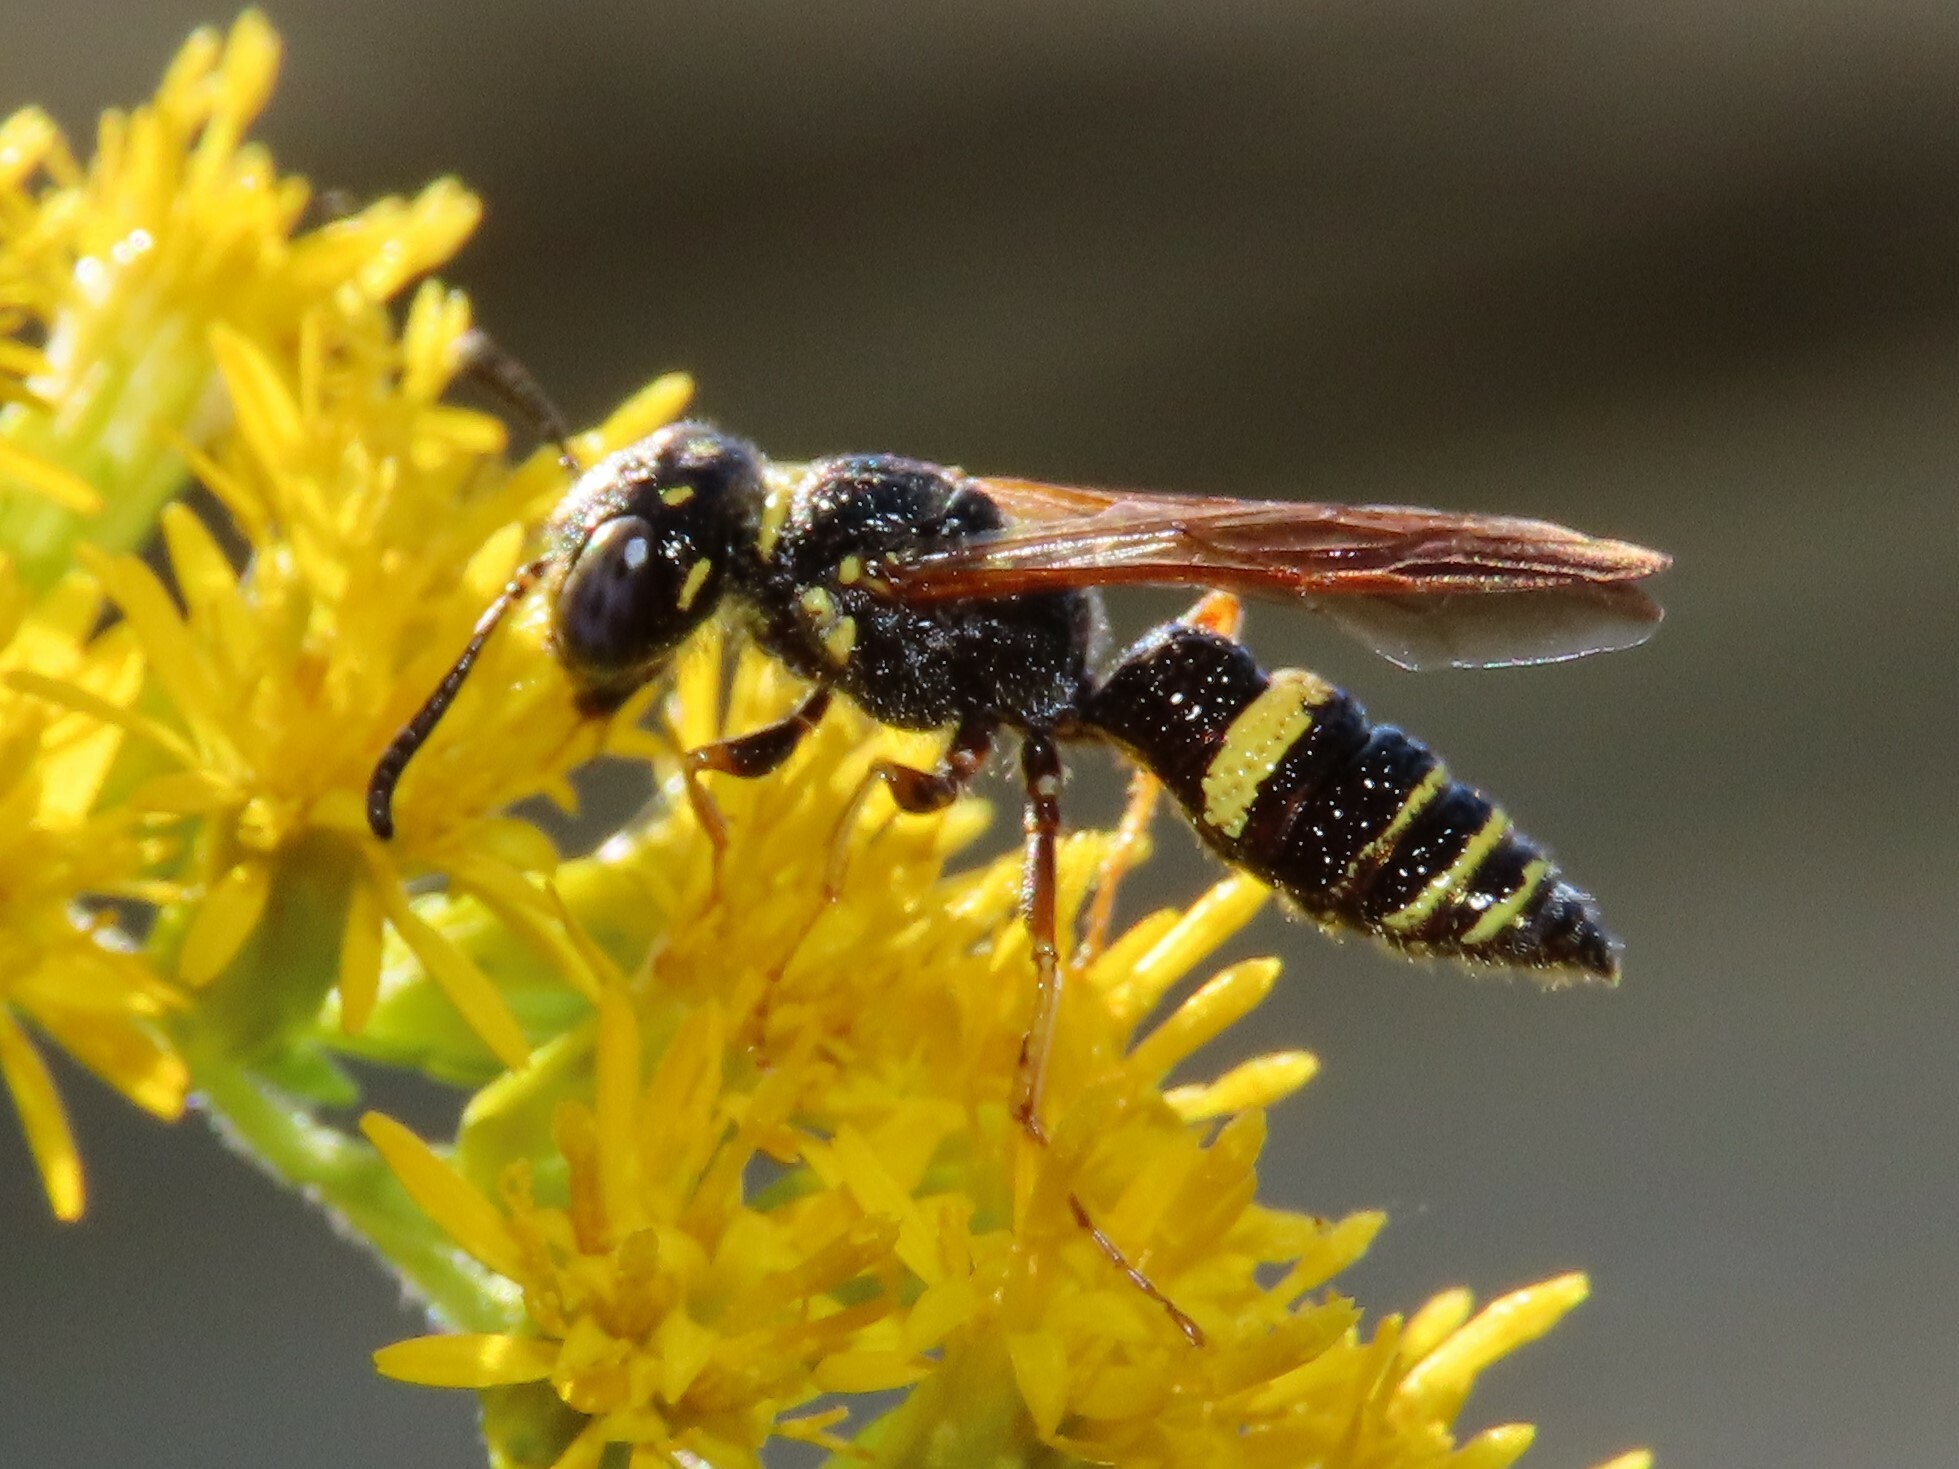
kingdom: Animalia
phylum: Arthropoda
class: Insecta
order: Hymenoptera
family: Crabronidae
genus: Philanthus
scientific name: Philanthus gibbosus
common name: Humped beewolf
